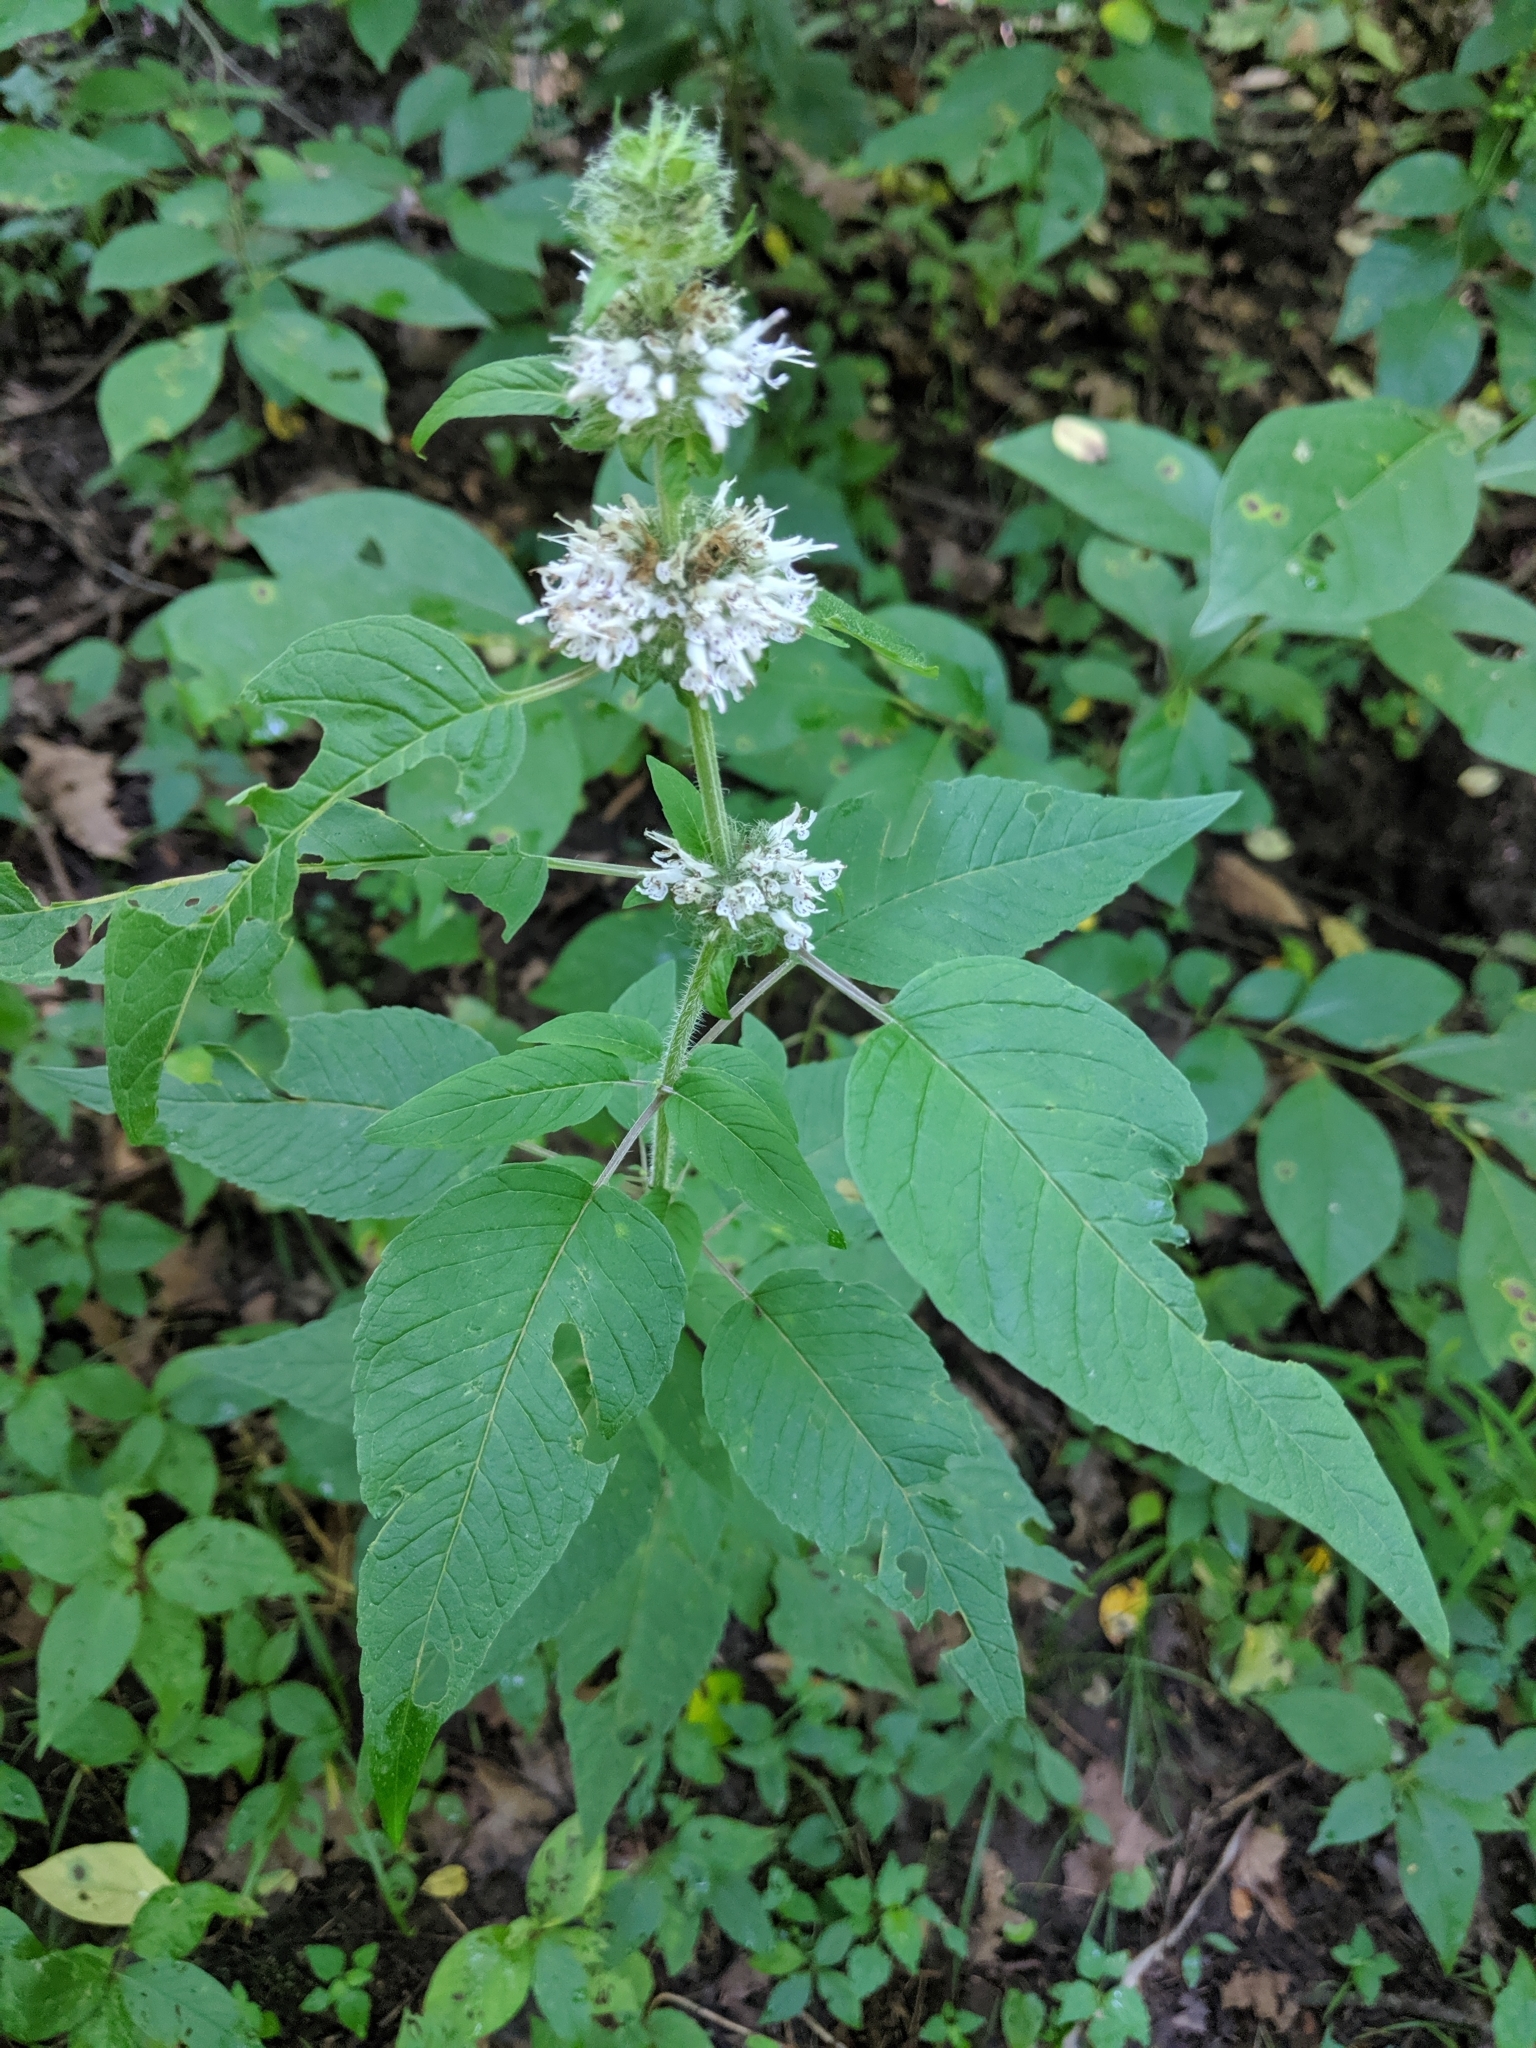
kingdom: Plantae
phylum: Tracheophyta
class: Magnoliopsida
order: Lamiales
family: Lamiaceae
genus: Blephilia
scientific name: Blephilia hirsuta
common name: Hairy blephilia
